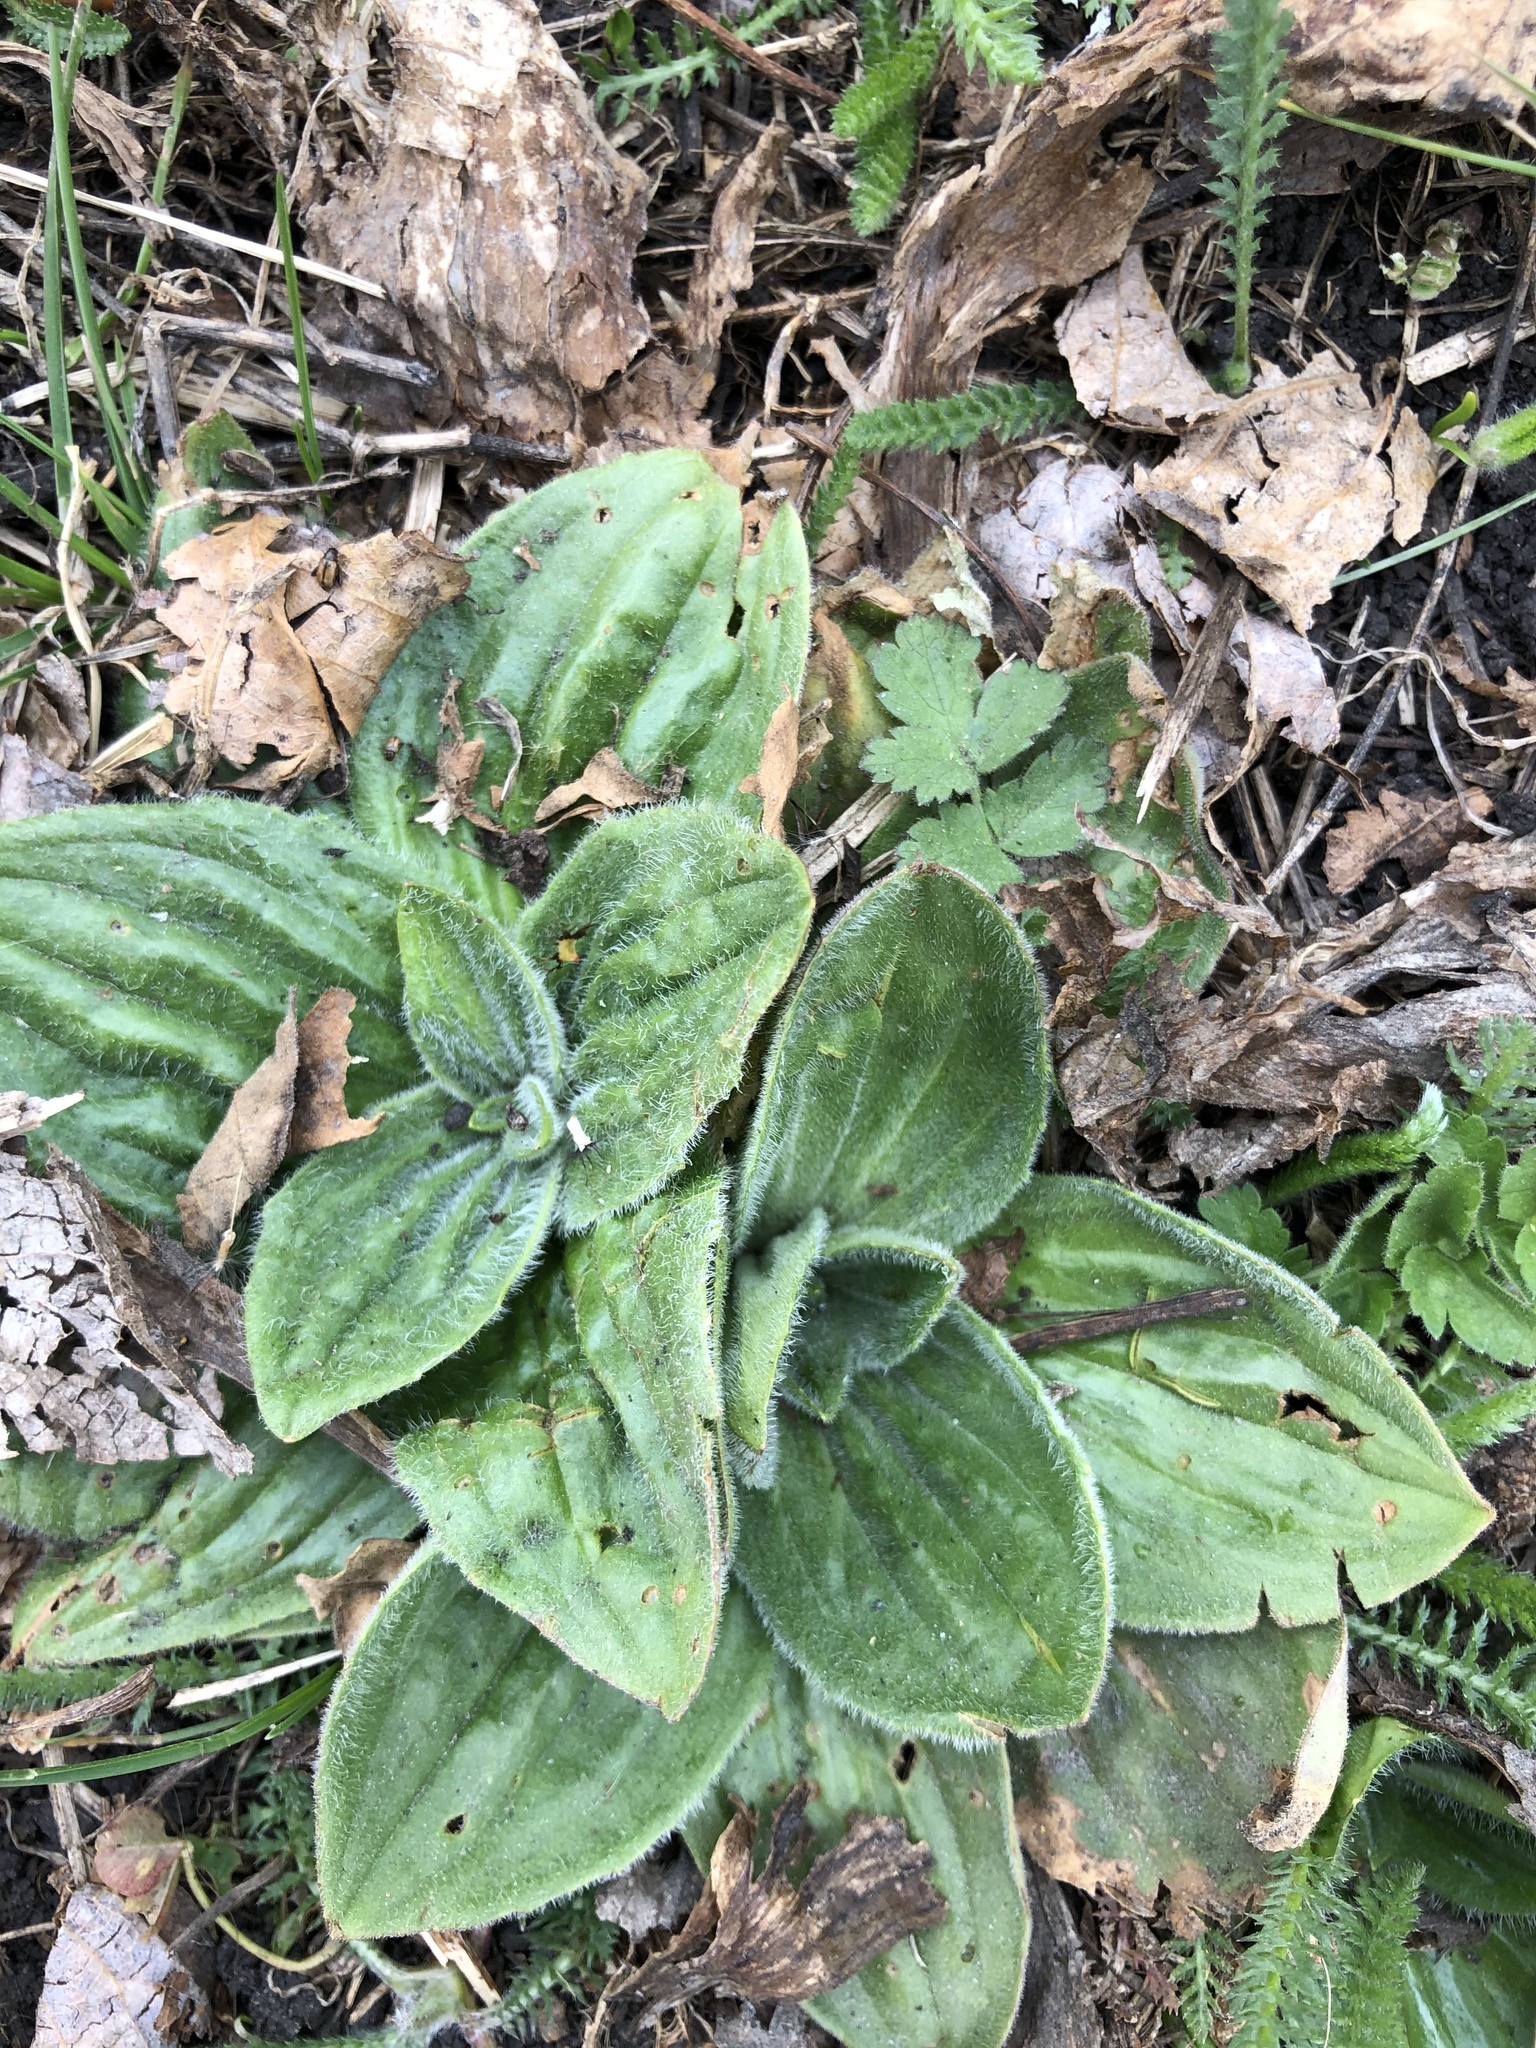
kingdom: Plantae
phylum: Tracheophyta
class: Magnoliopsida
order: Lamiales
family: Plantaginaceae
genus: Plantago
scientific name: Plantago media
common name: Hoary plantain
